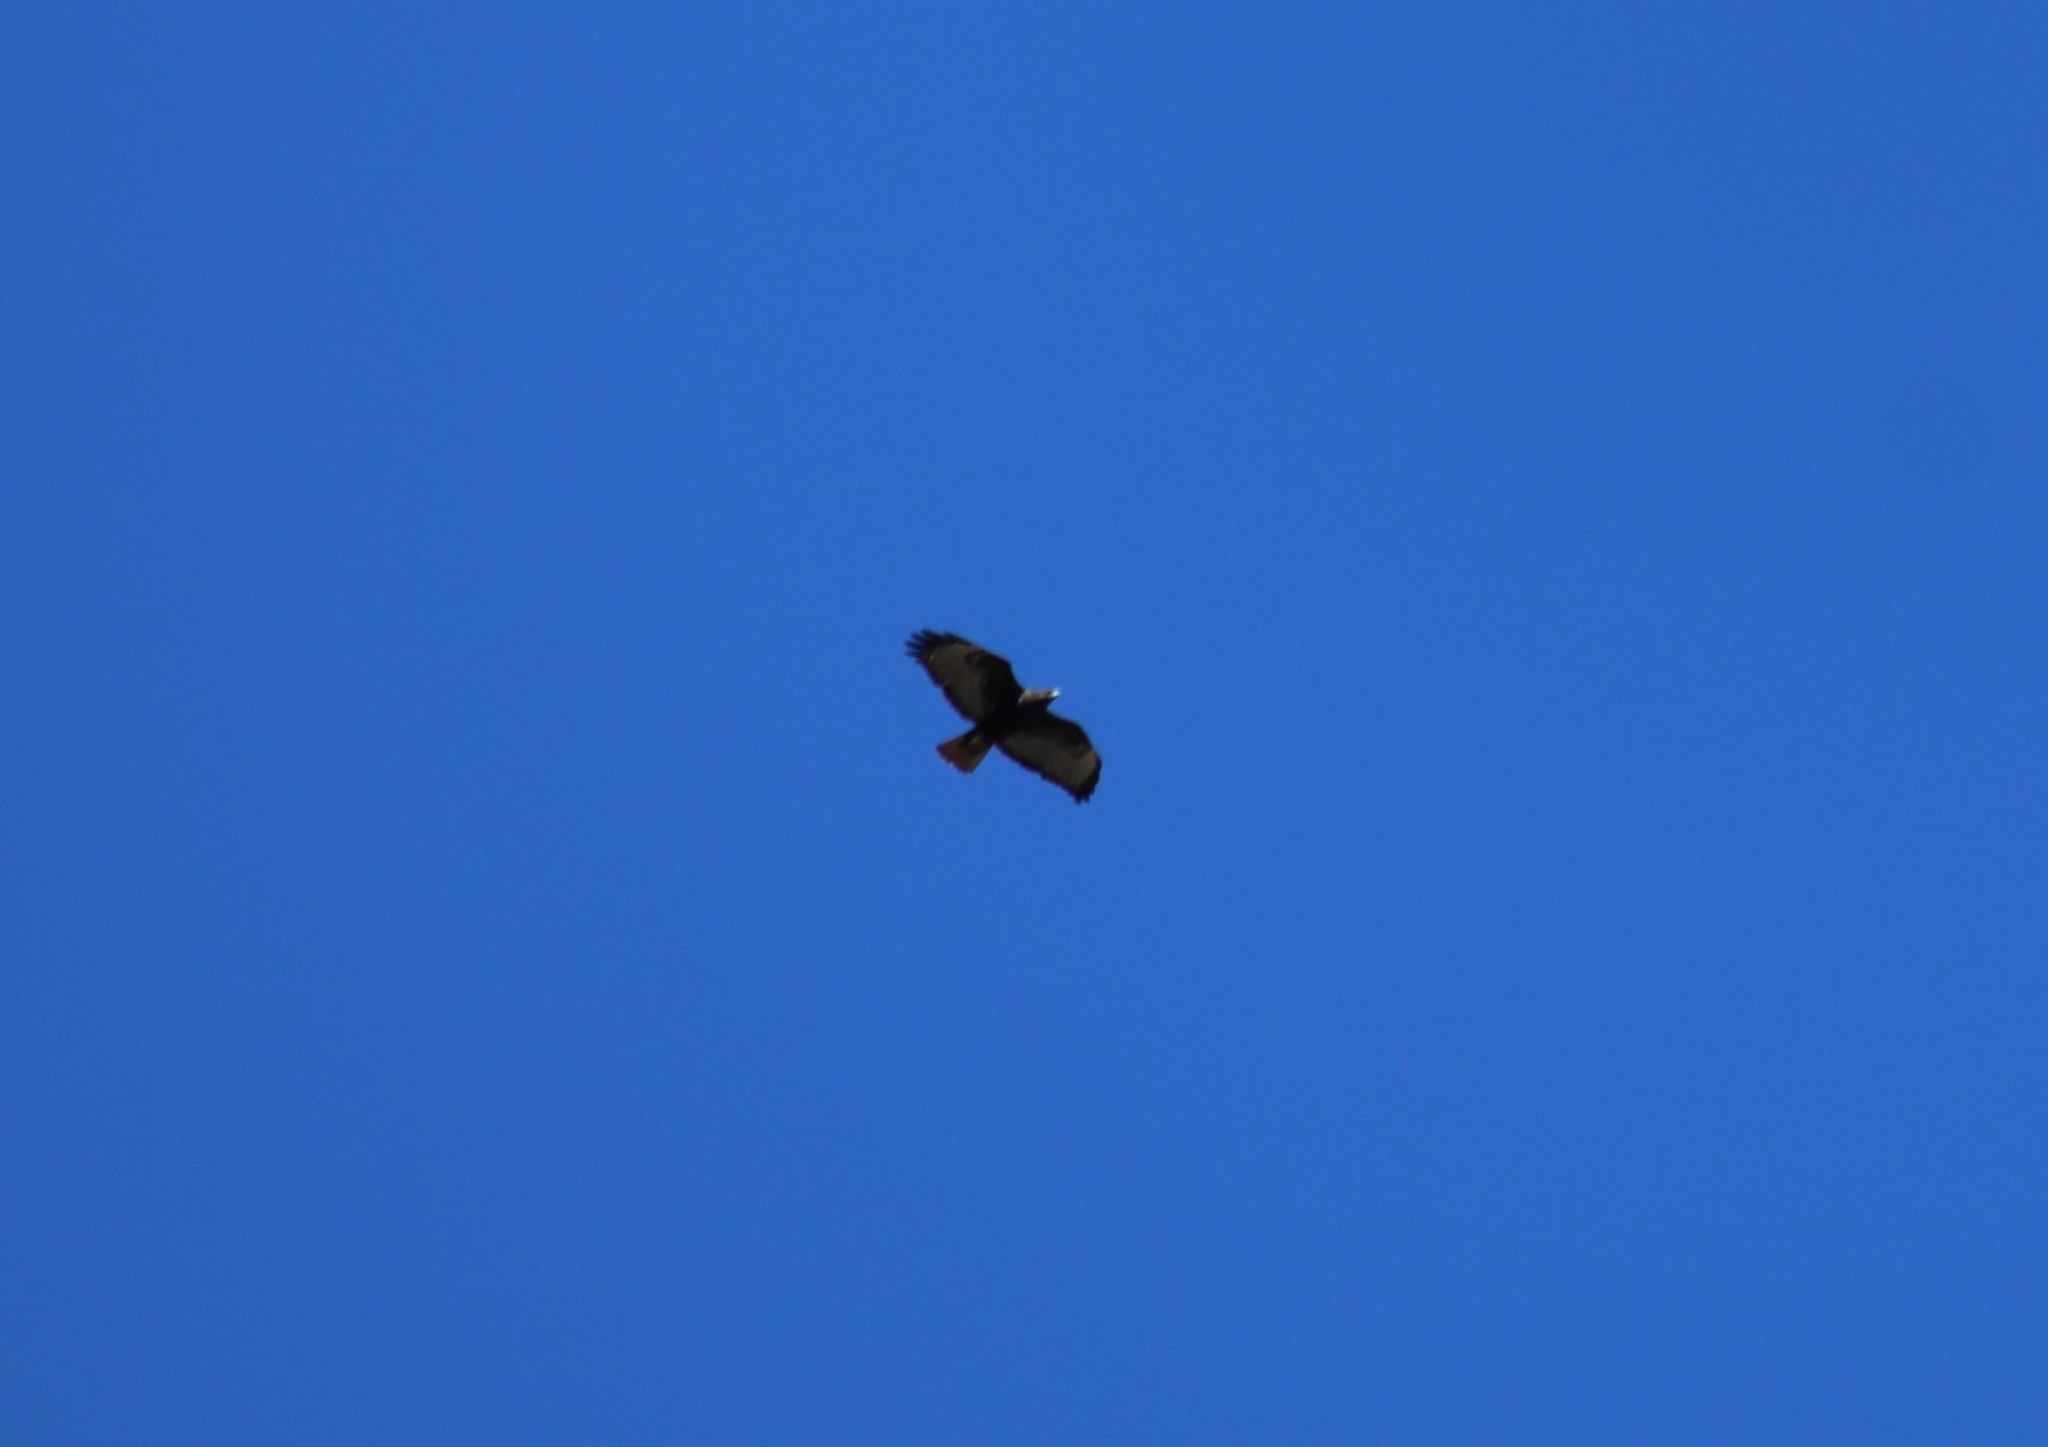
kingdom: Animalia
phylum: Chordata
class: Aves
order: Accipitriformes
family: Accipitridae
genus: Buteo
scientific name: Buteo jamaicensis
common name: Red-tailed hawk
